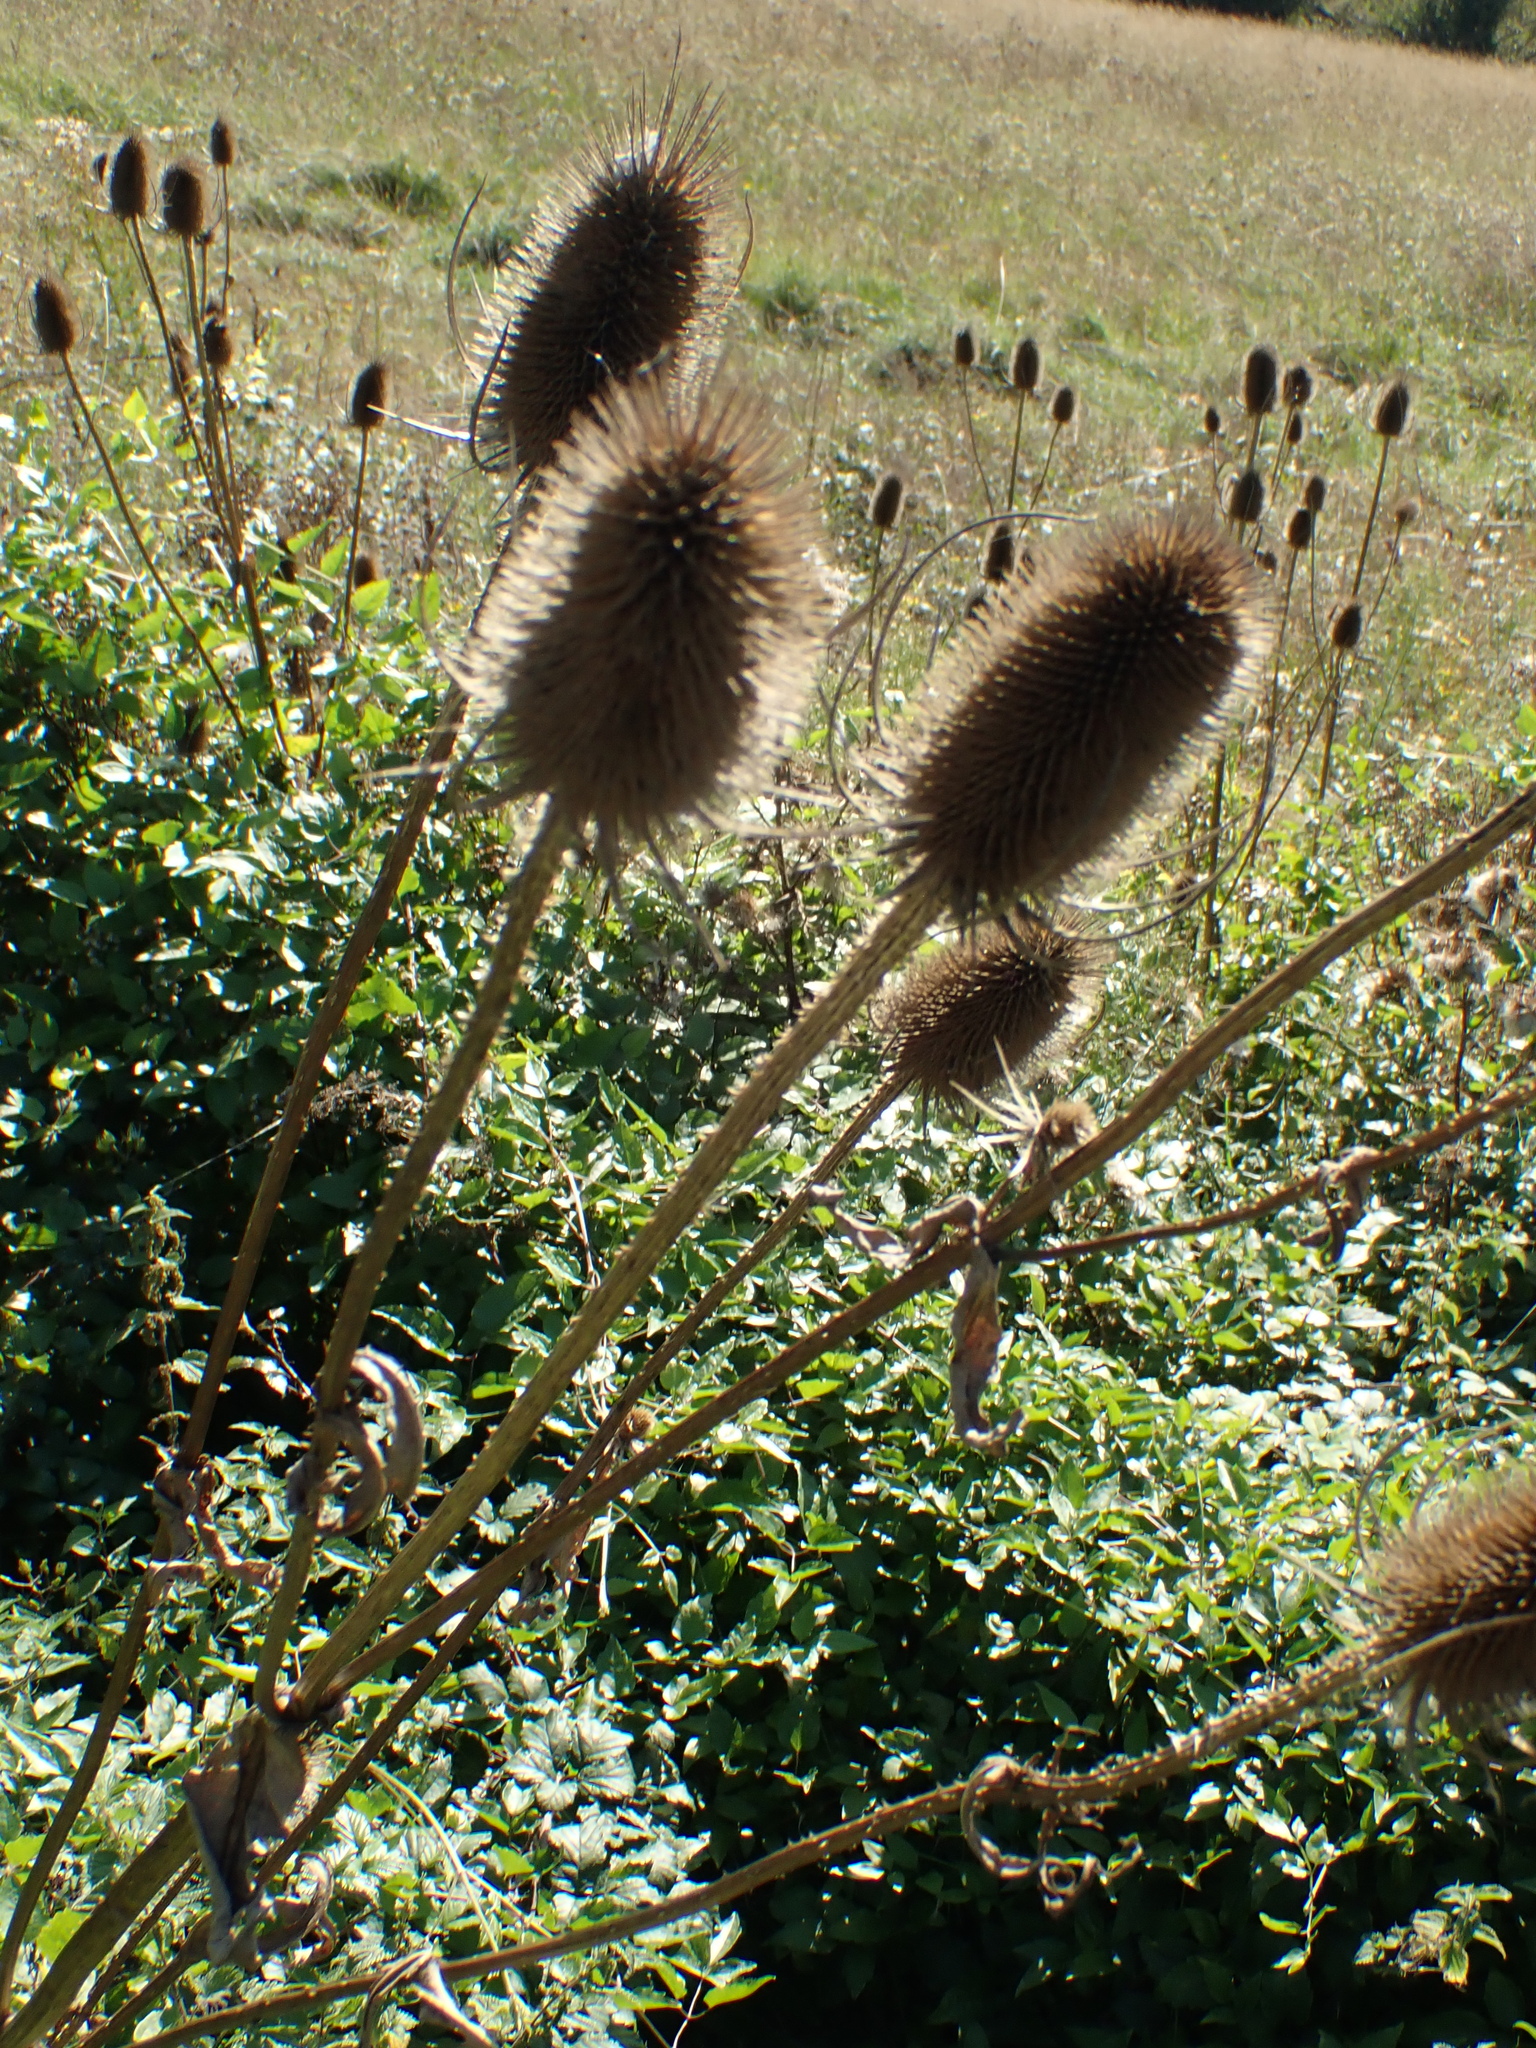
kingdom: Plantae
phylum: Tracheophyta
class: Magnoliopsida
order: Dipsacales
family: Caprifoliaceae
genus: Dipsacus
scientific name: Dipsacus fullonum
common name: Teasel
